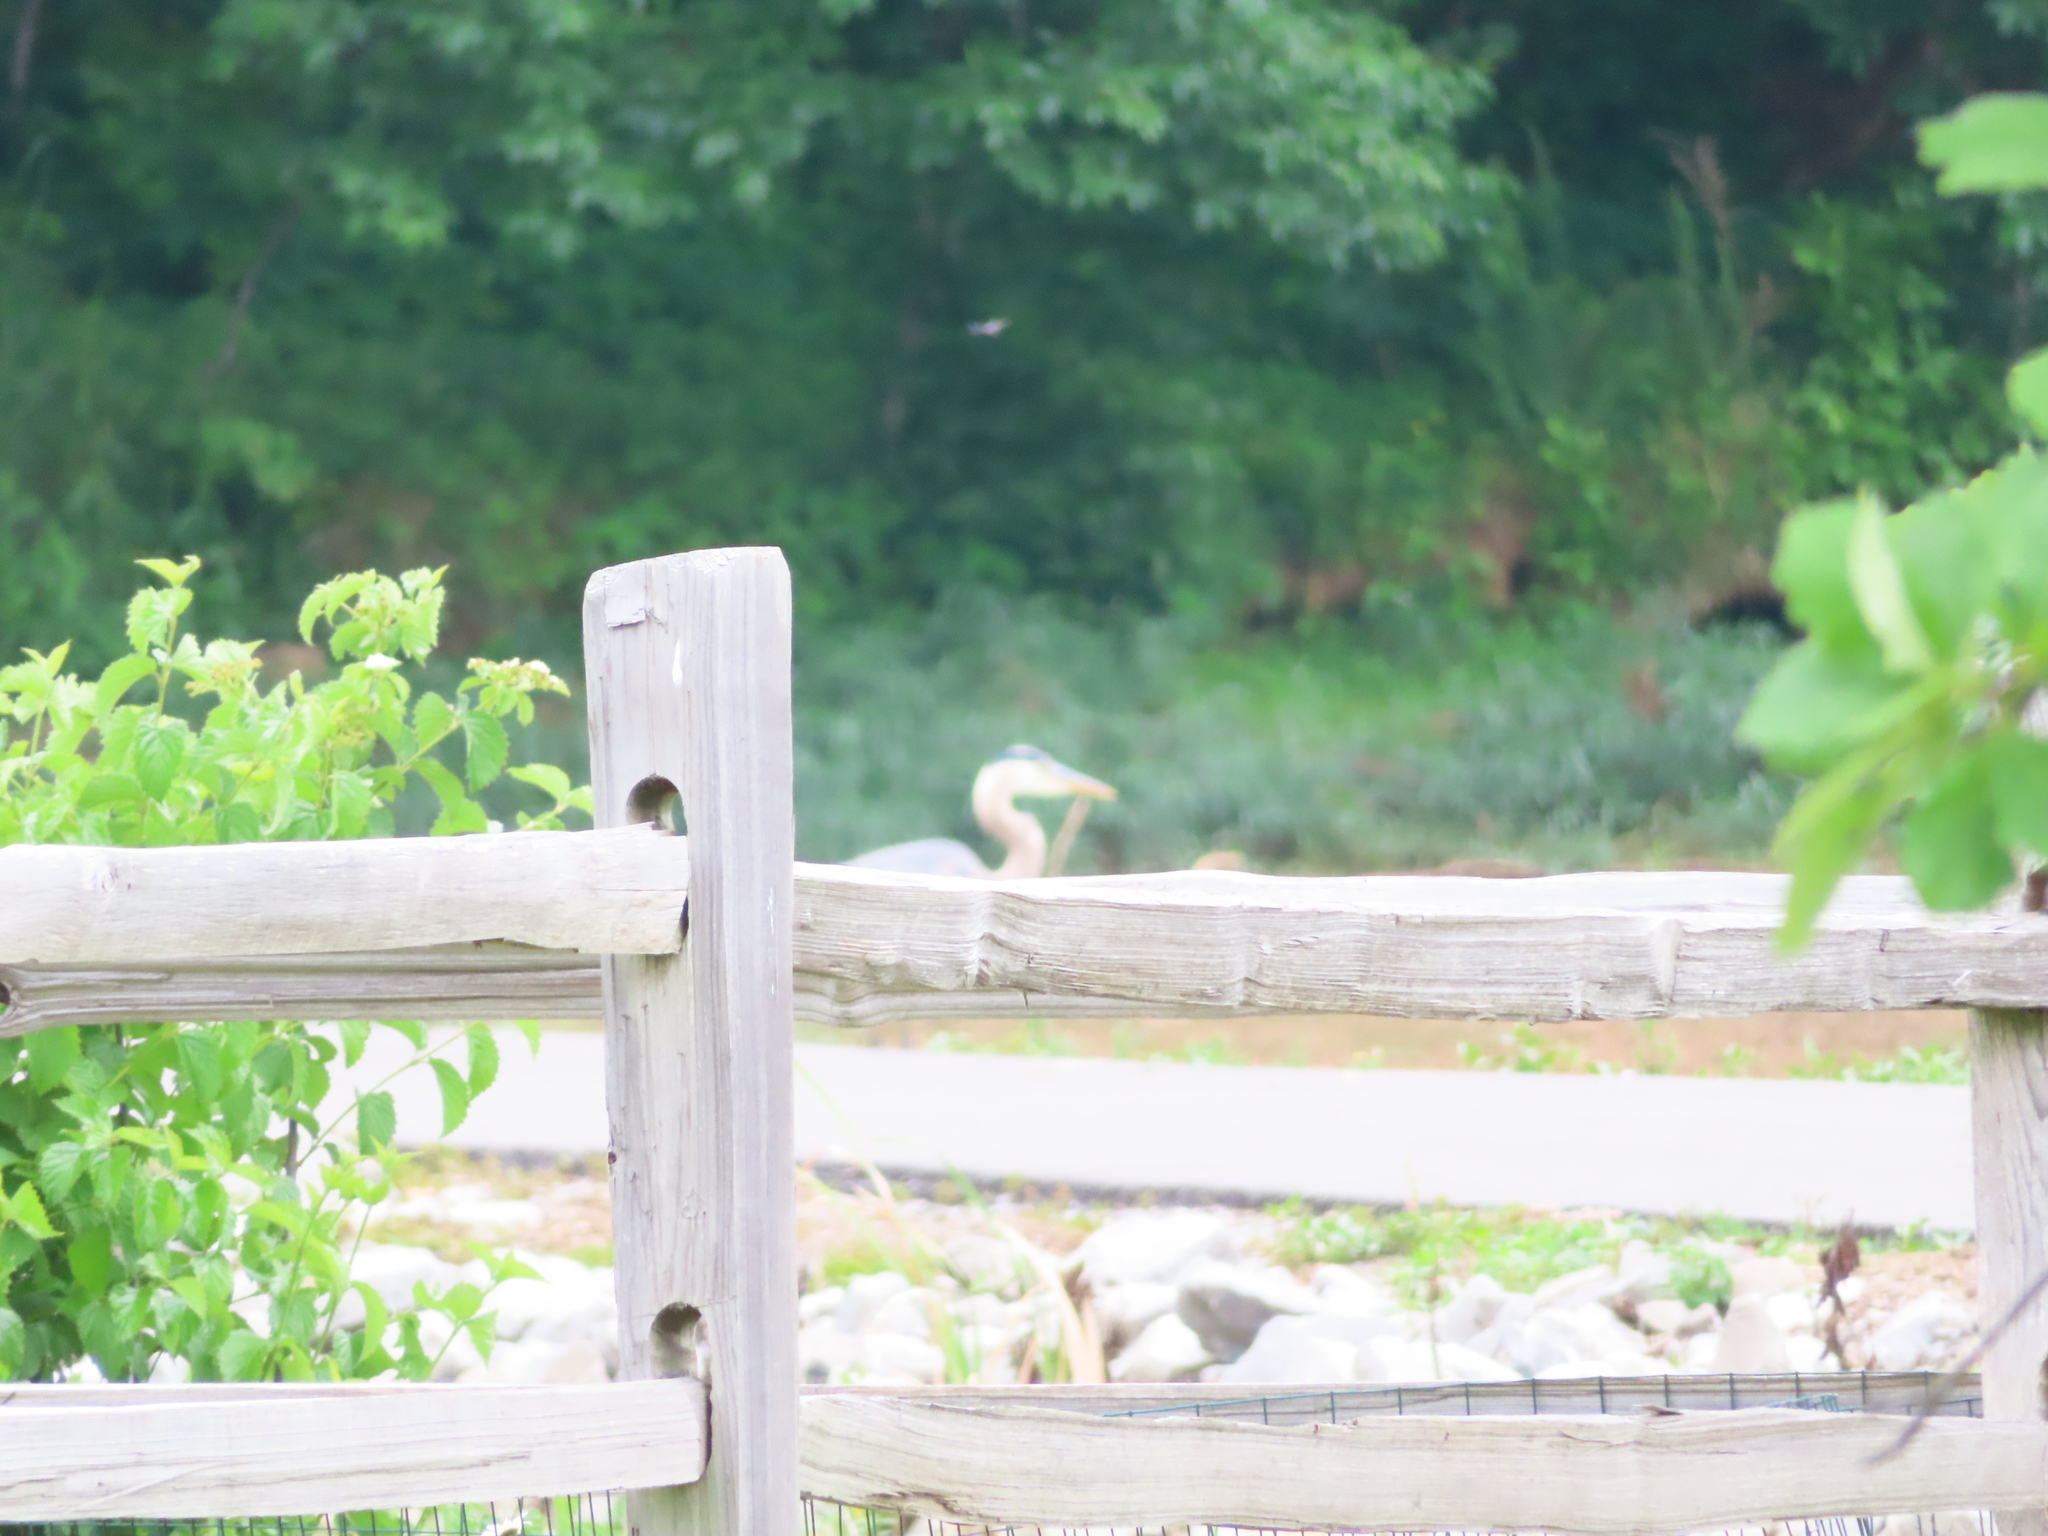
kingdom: Animalia
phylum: Chordata
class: Aves
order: Pelecaniformes
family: Ardeidae
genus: Ardea
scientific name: Ardea herodias
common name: Great blue heron
